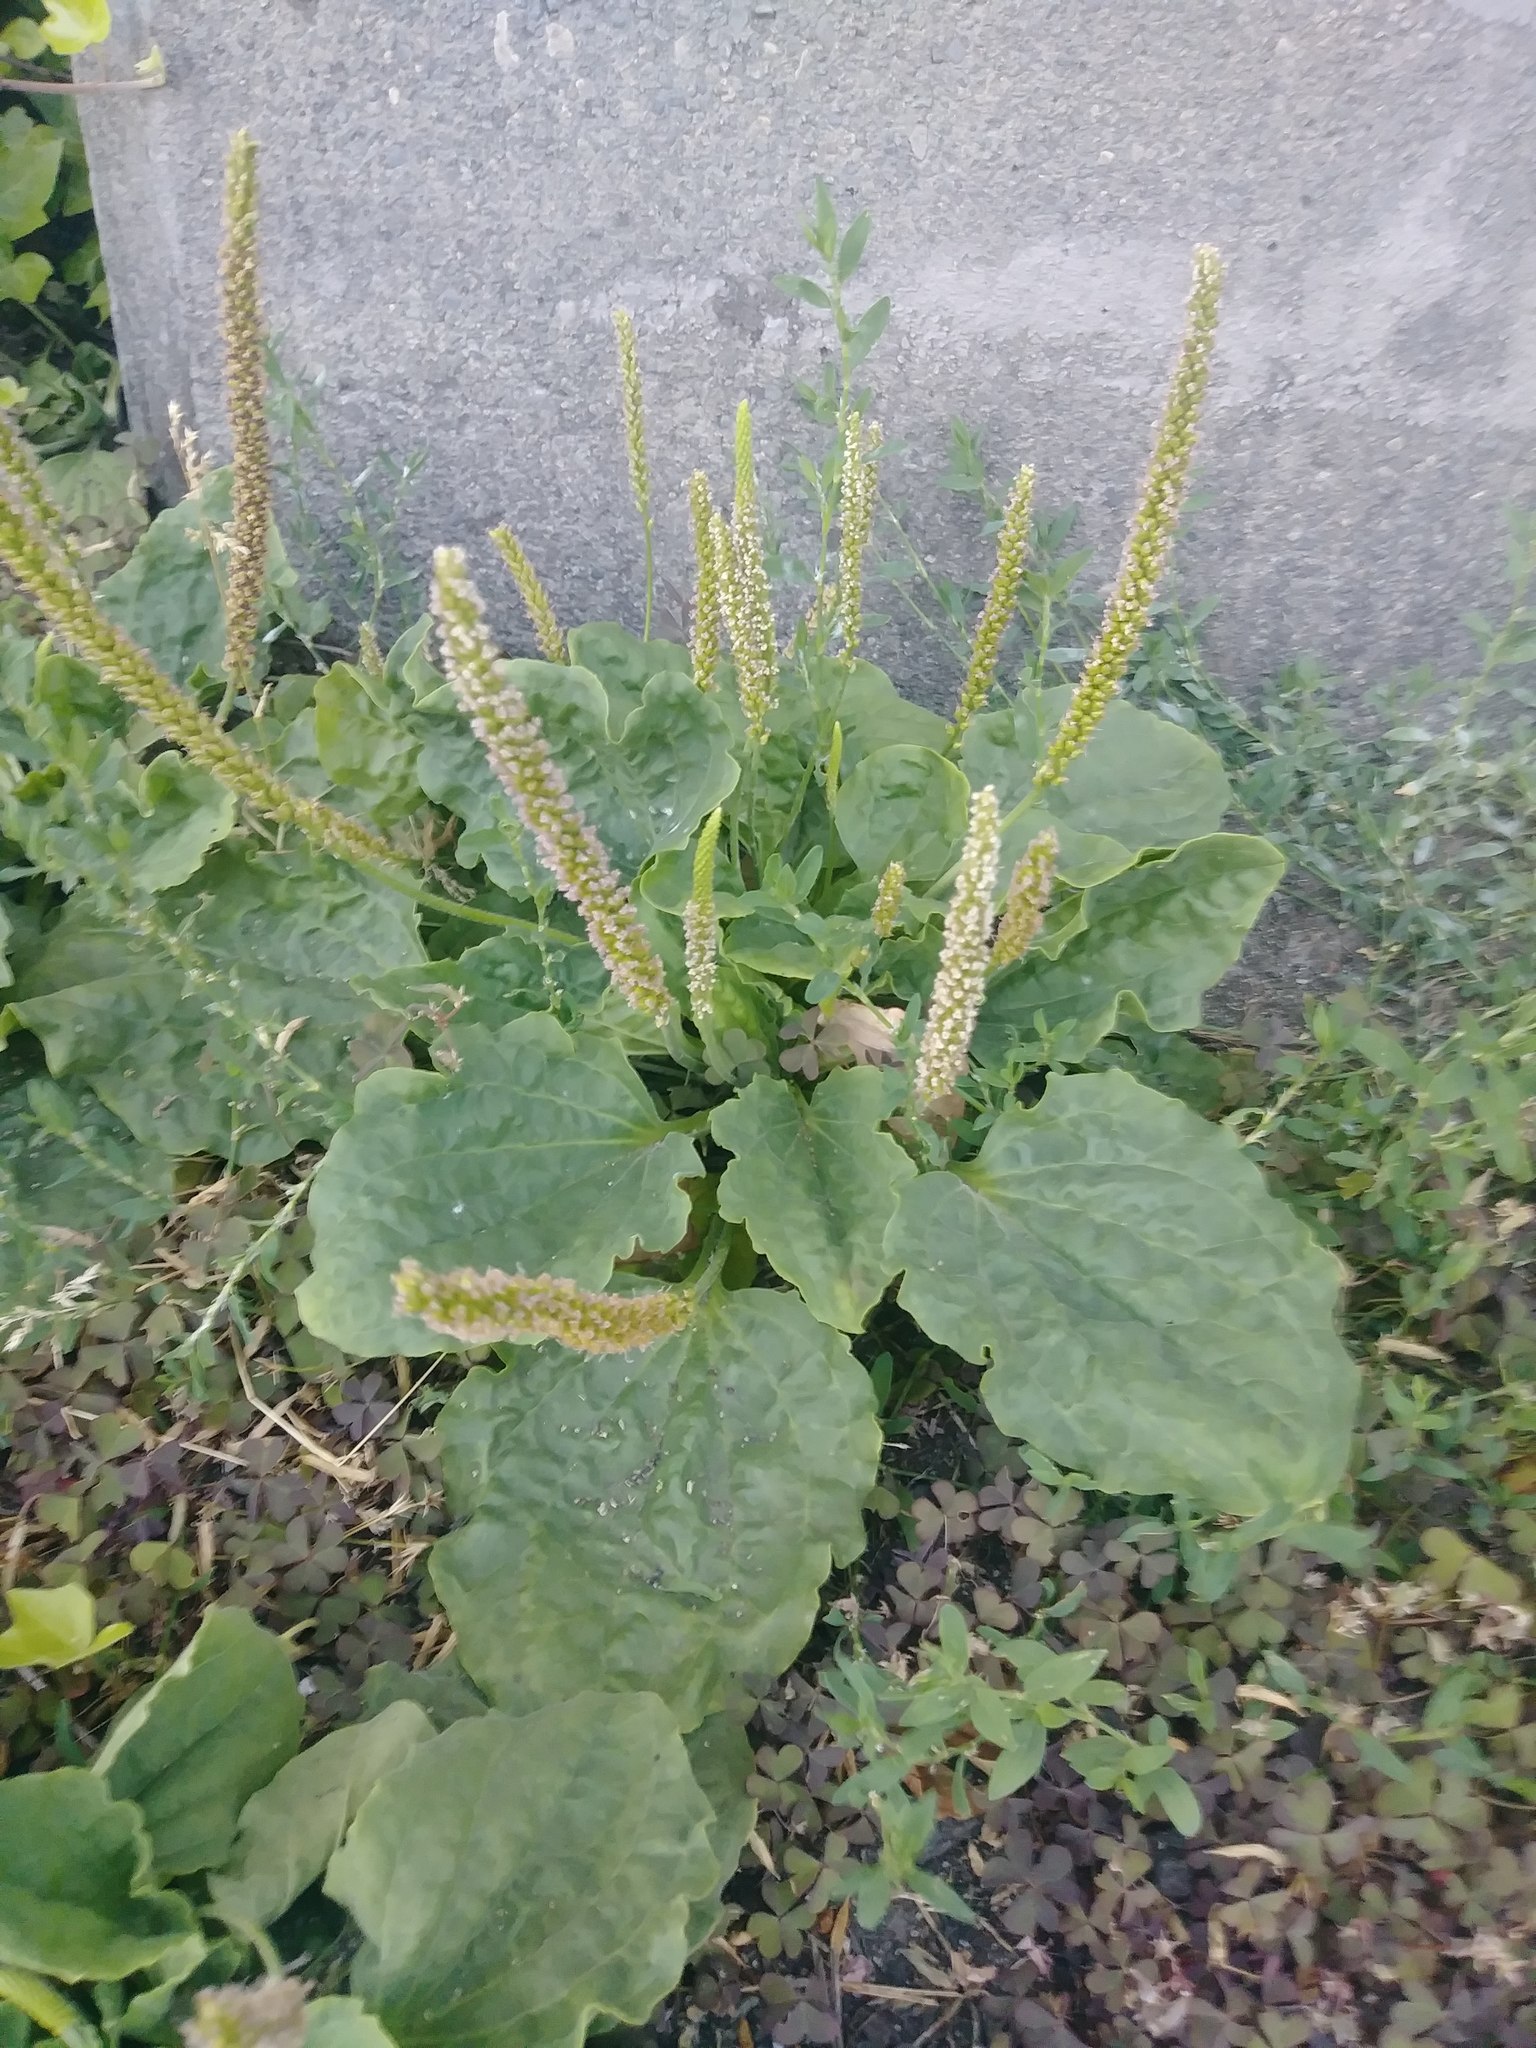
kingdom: Plantae
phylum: Tracheophyta
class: Magnoliopsida
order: Lamiales
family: Plantaginaceae
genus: Plantago
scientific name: Plantago major
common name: Common plantain
